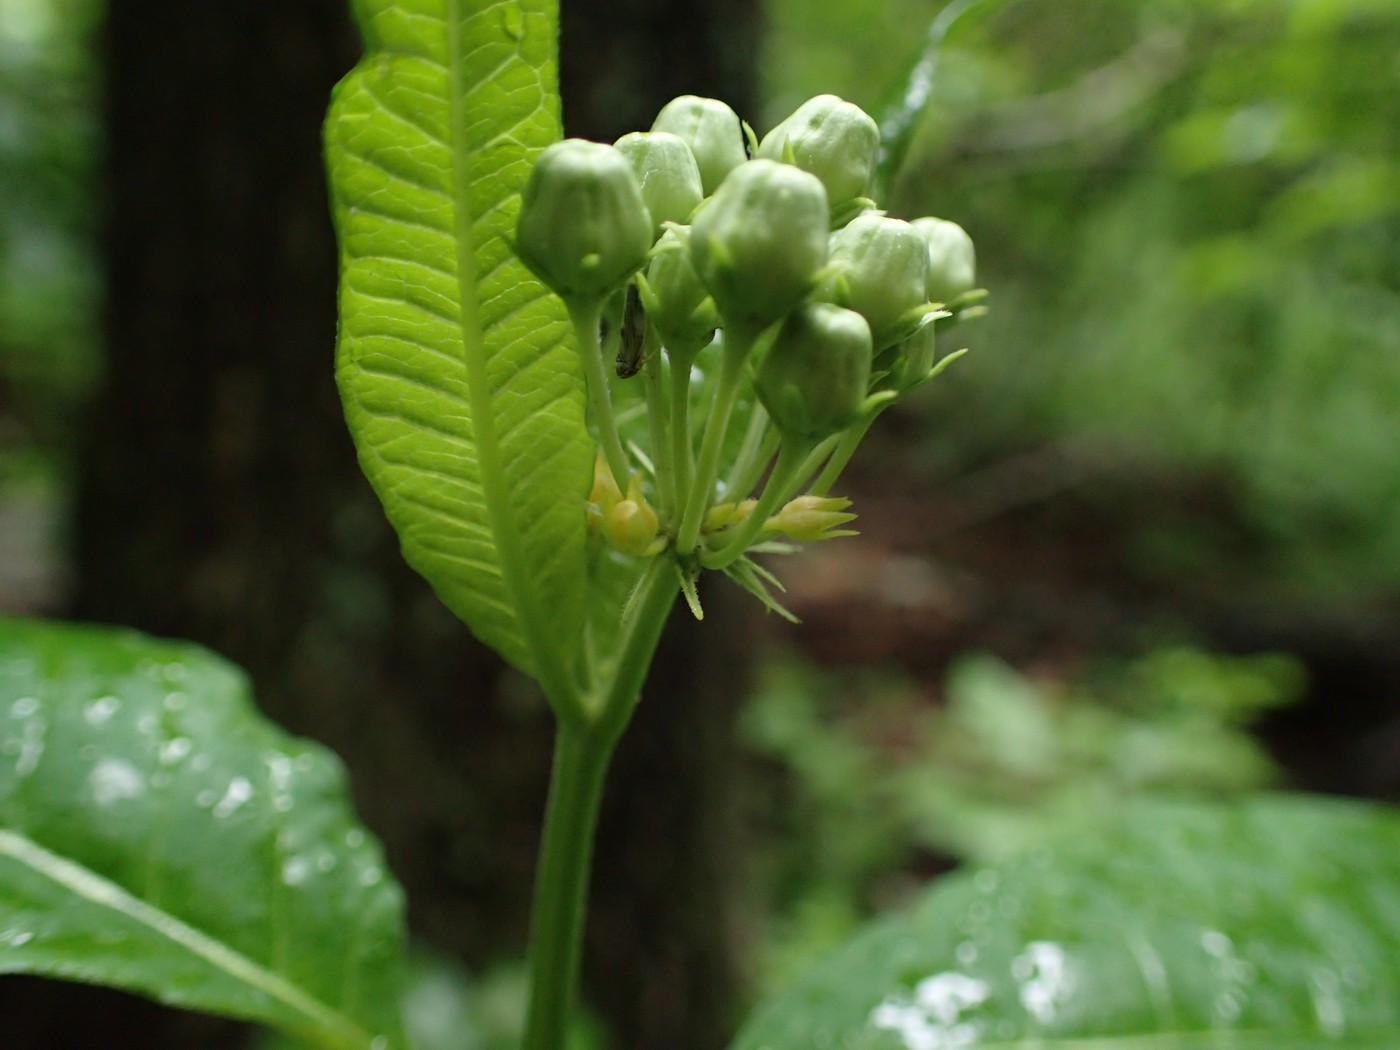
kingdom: Plantae
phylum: Tracheophyta
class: Magnoliopsida
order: Gentianales
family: Apocynaceae
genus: Asclepias
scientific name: Asclepias exaltata
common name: Poke milkweed
